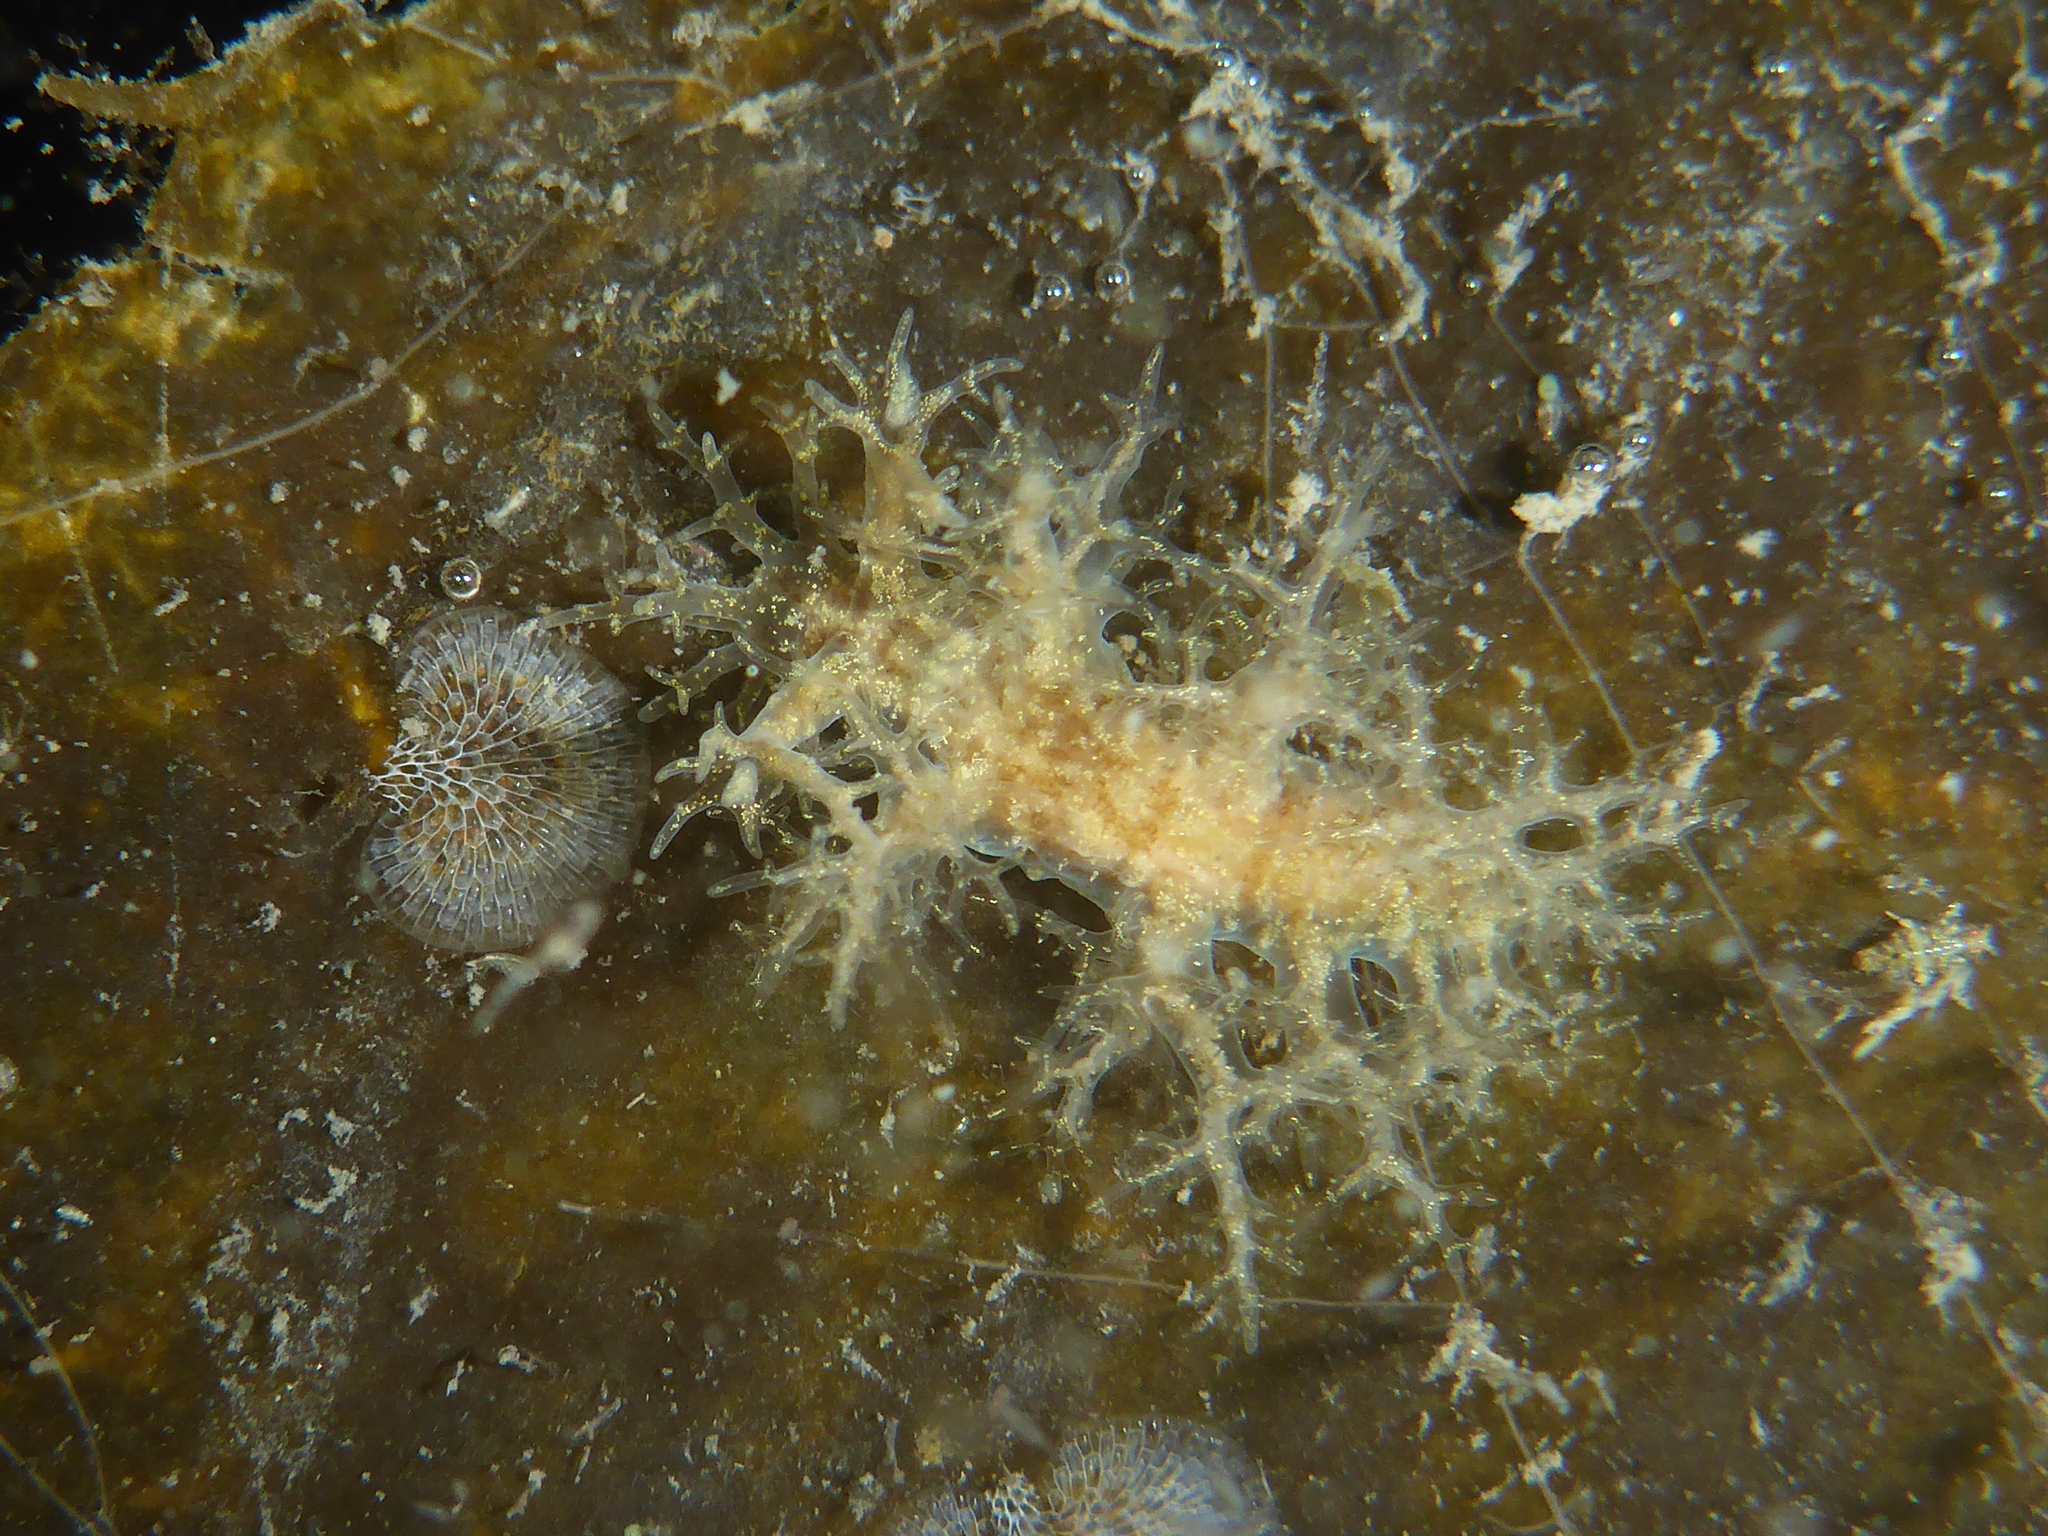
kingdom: Animalia
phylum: Mollusca
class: Gastropoda
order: Nudibranchia
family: Dendronotidae
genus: Dendronotus
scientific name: Dendronotus venustus
